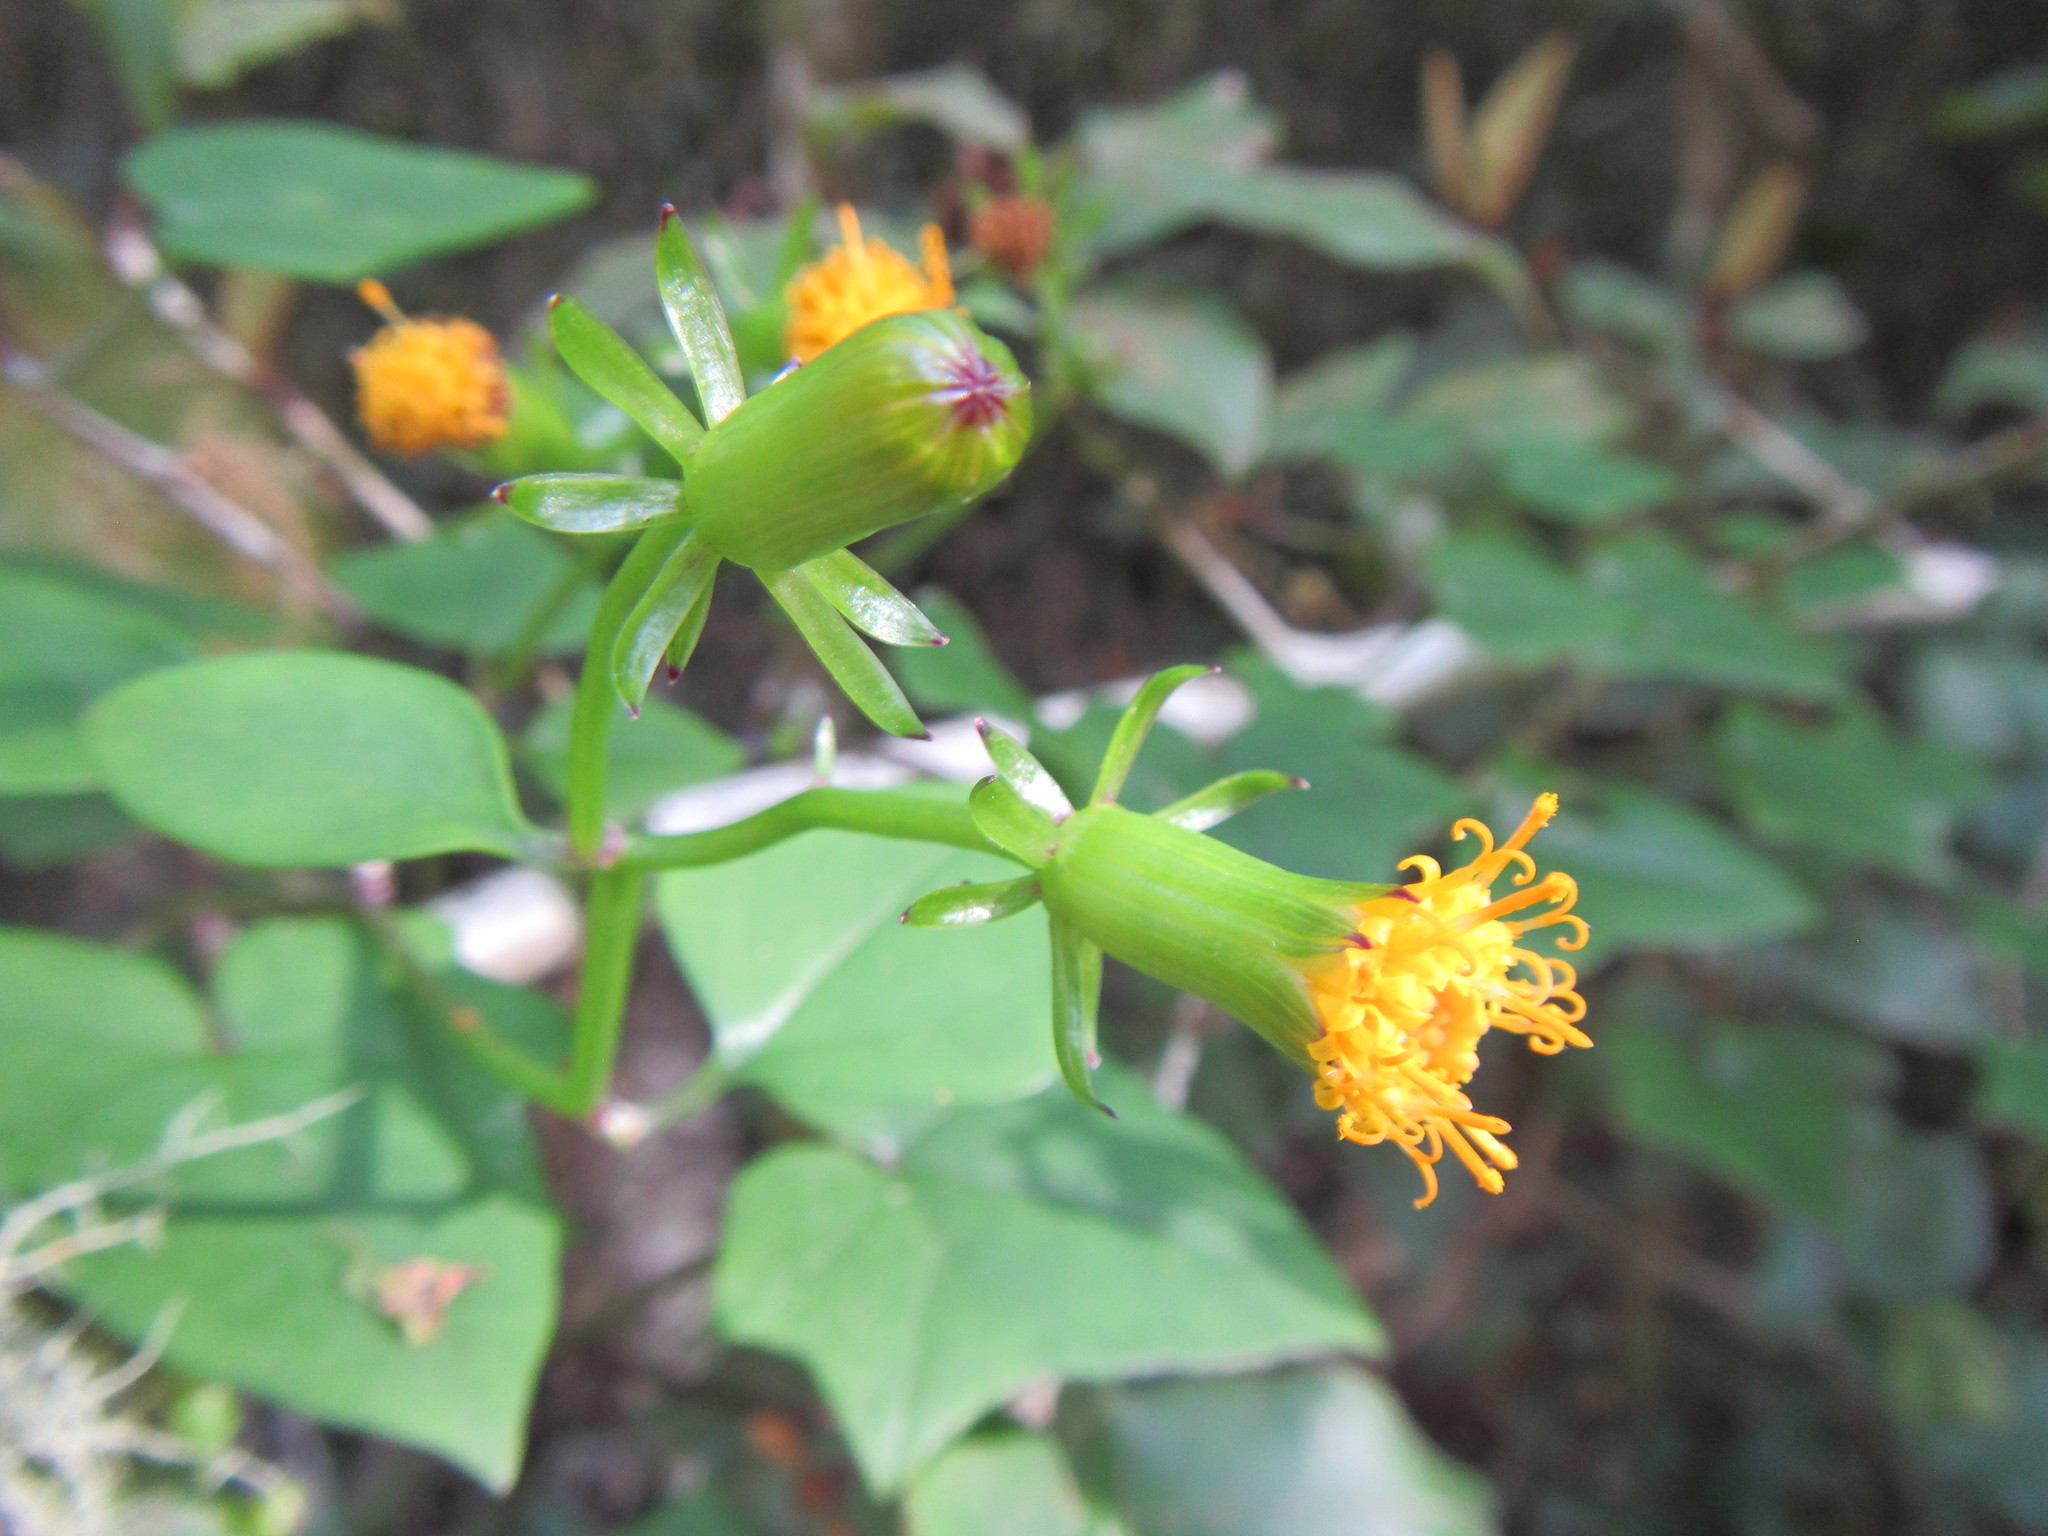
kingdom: Plantae
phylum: Tracheophyta
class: Magnoliopsida
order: Asterales
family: Asteraceae
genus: Senecio
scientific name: Senecio quinquelobus
